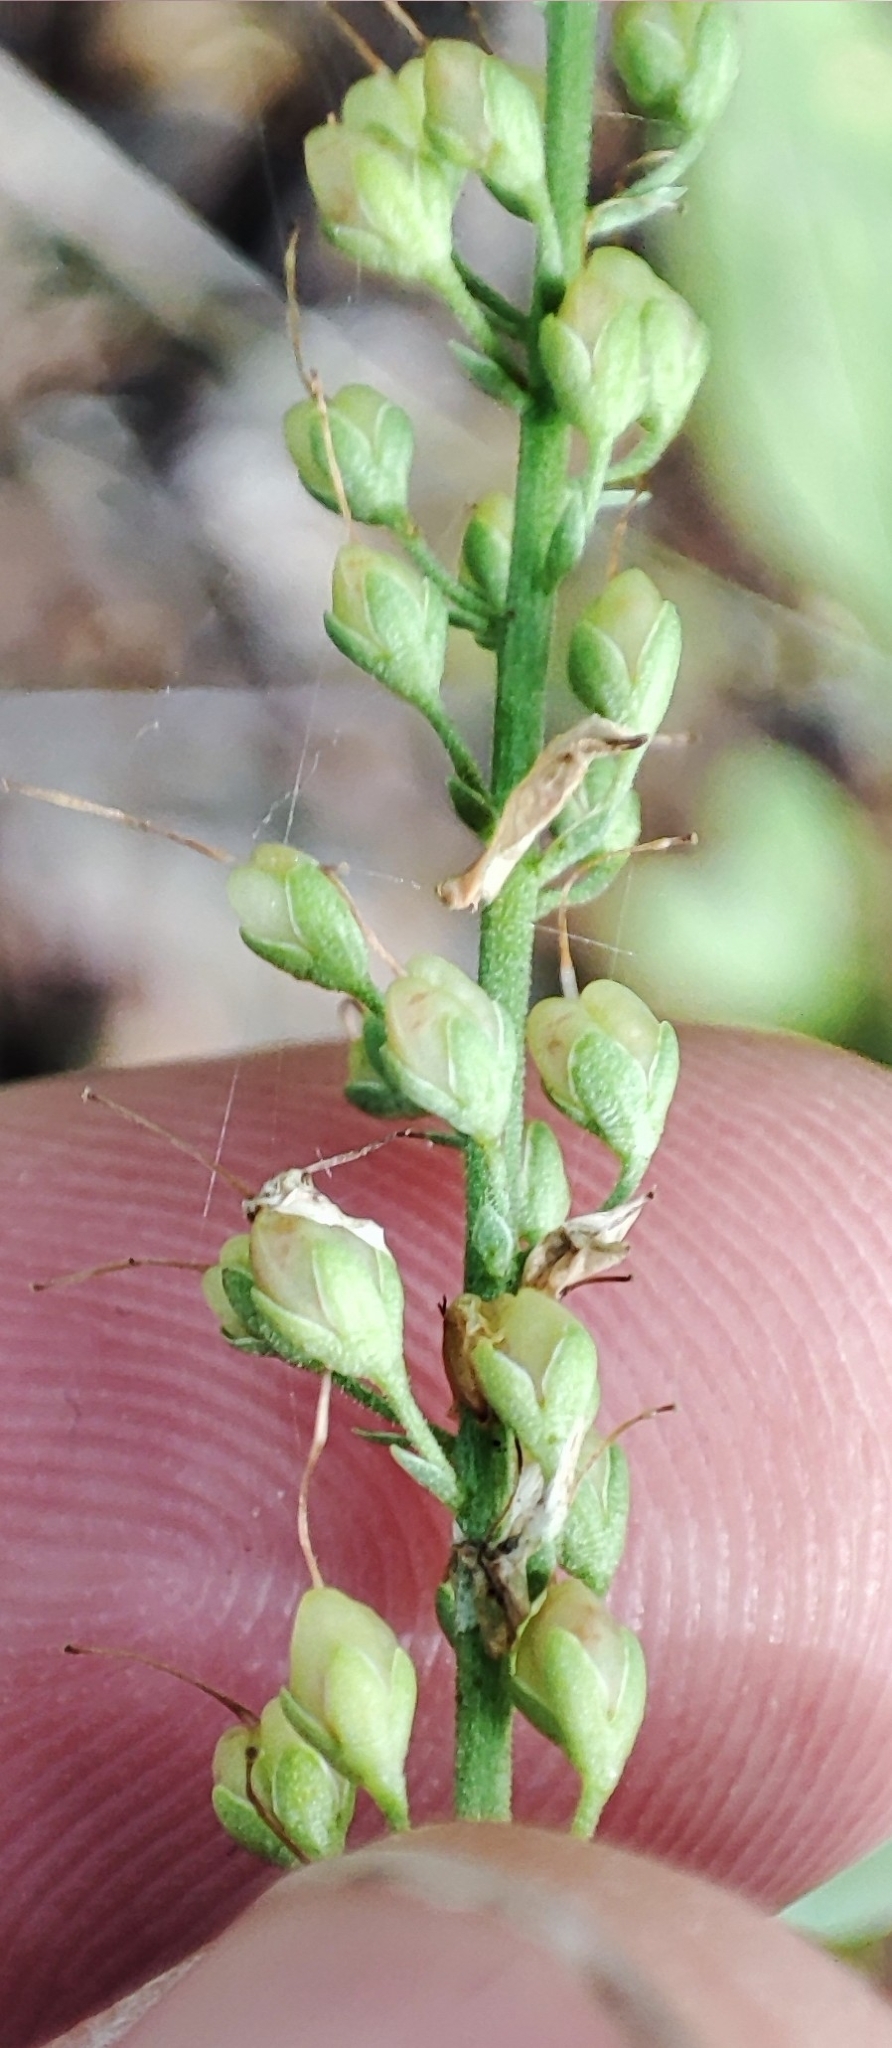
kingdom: Plantae
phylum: Tracheophyta
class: Magnoliopsida
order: Lamiales
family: Plantaginaceae
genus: Veronica
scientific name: Veronica spuria
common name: Bastard speedwell
